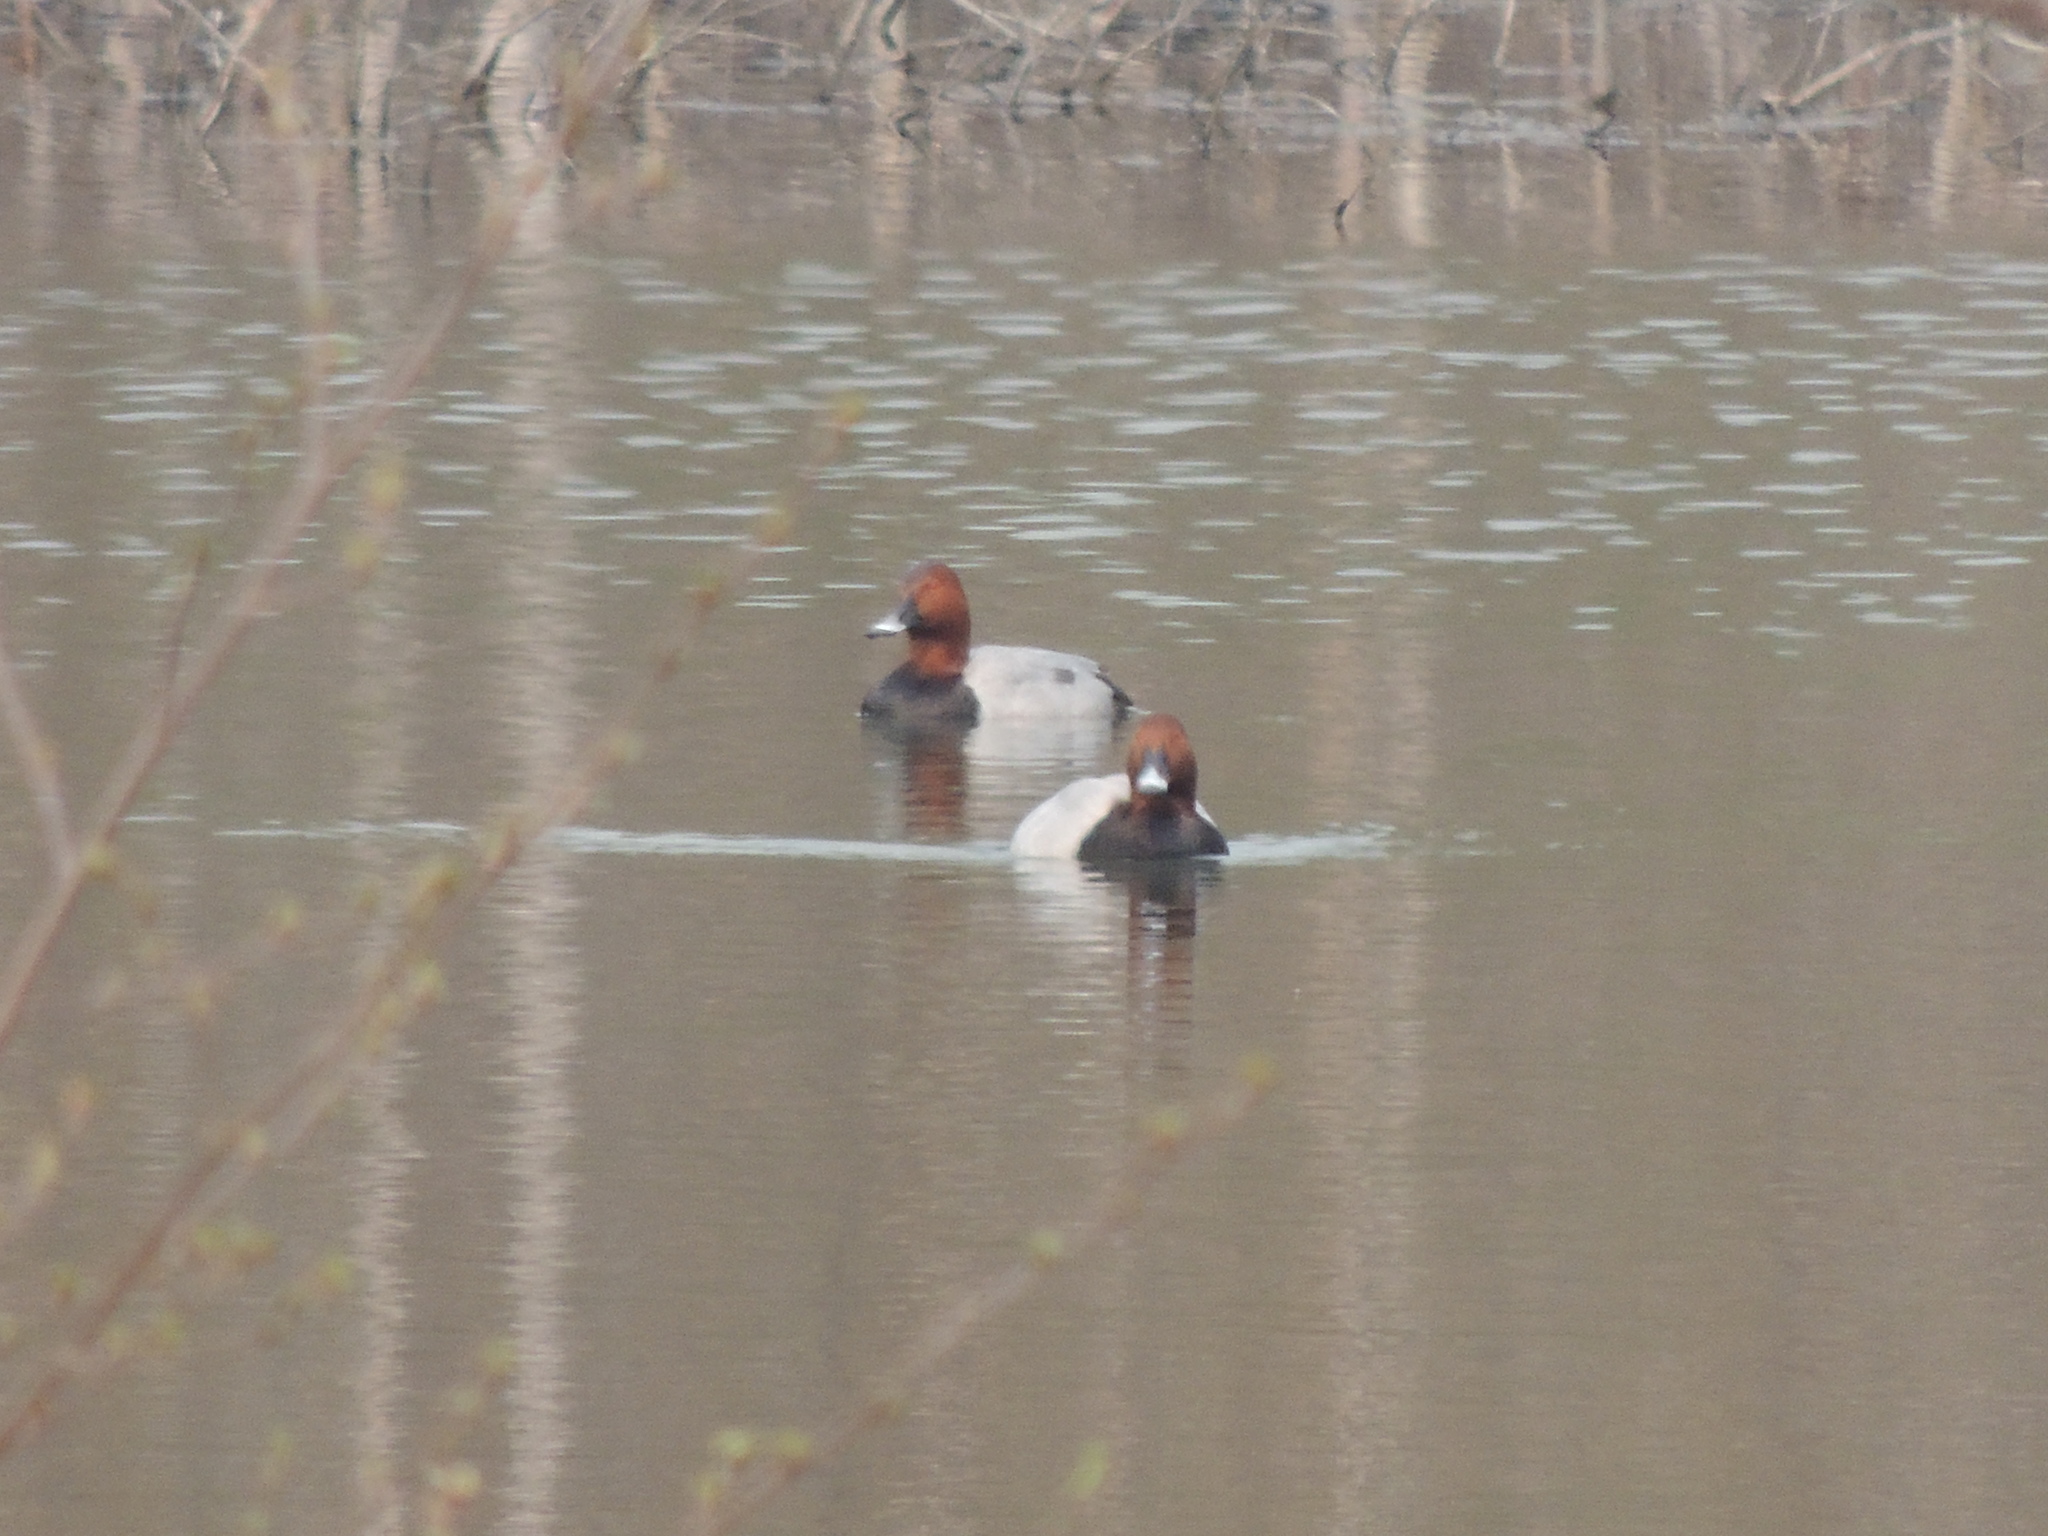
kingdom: Animalia
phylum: Chordata
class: Aves
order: Anseriformes
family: Anatidae
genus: Aythya
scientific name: Aythya ferina
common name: Common pochard
